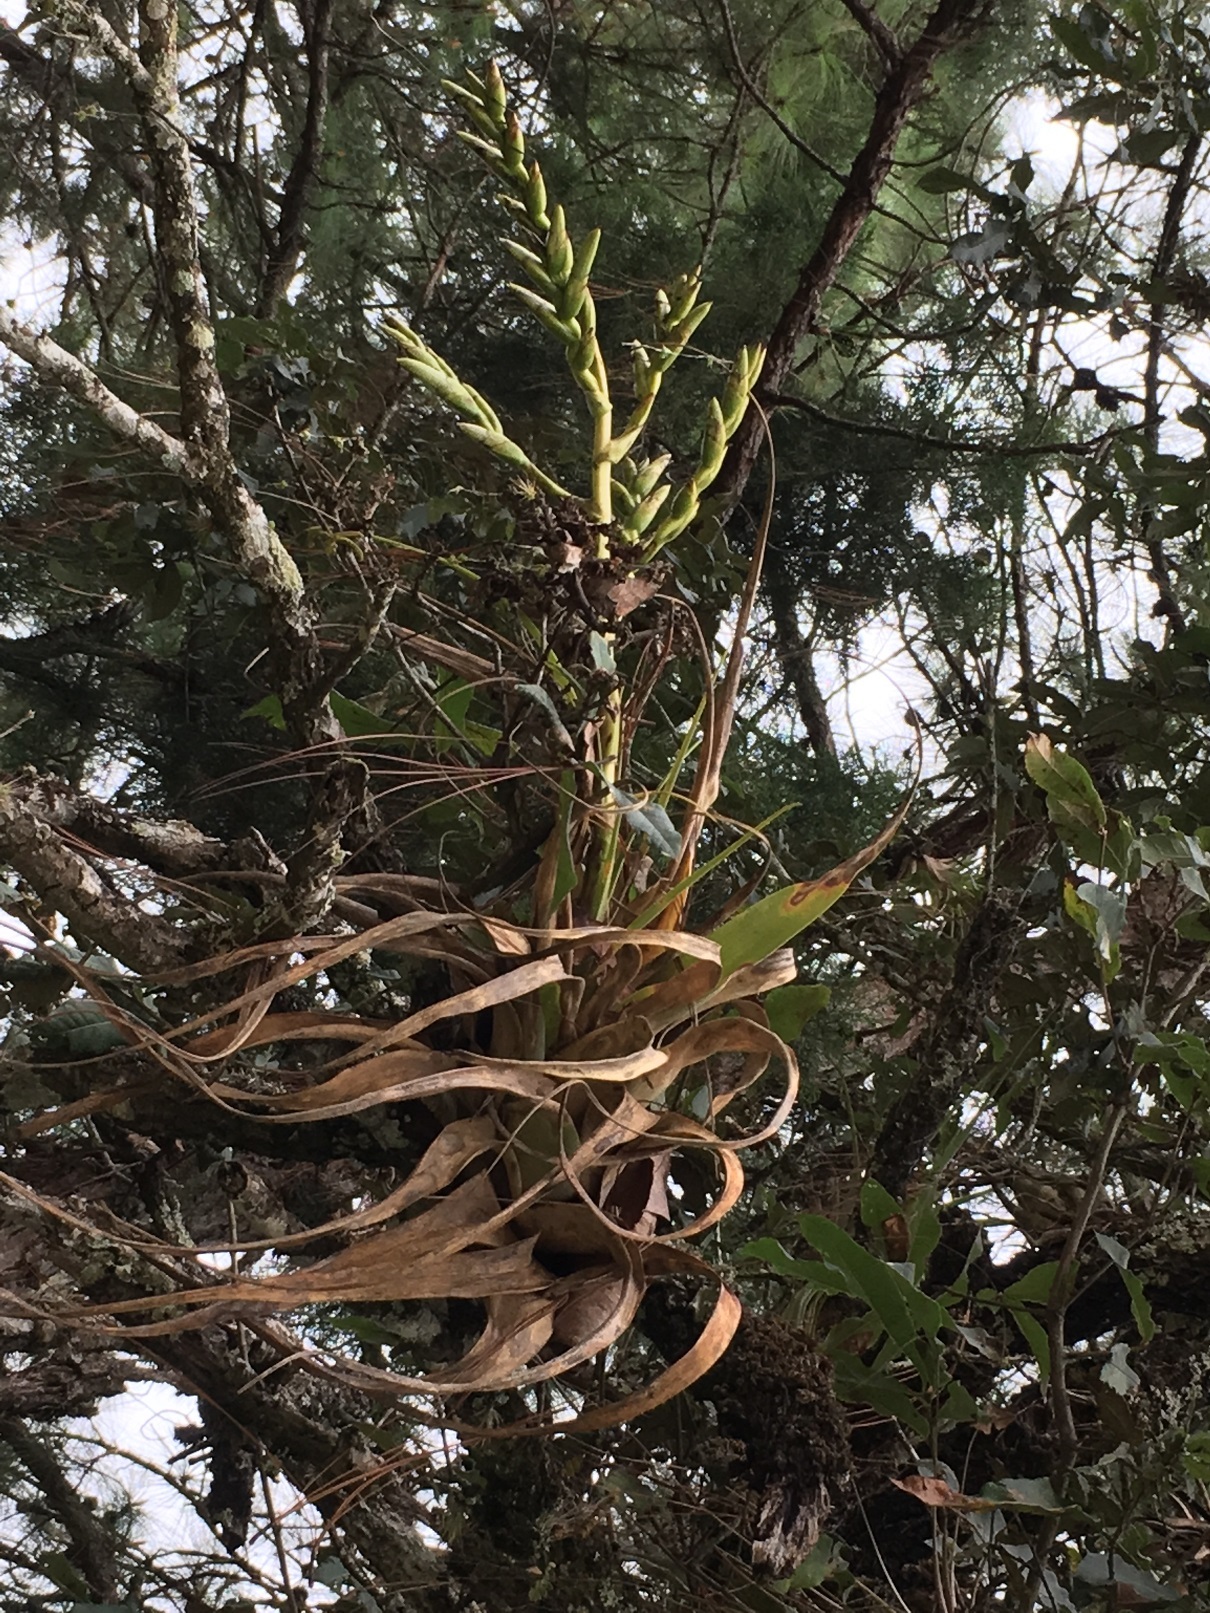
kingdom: Plantae
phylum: Tracheophyta
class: Liliopsida
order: Poales
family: Bromeliaceae
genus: Tillandsia
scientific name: Tillandsia comitanensis
